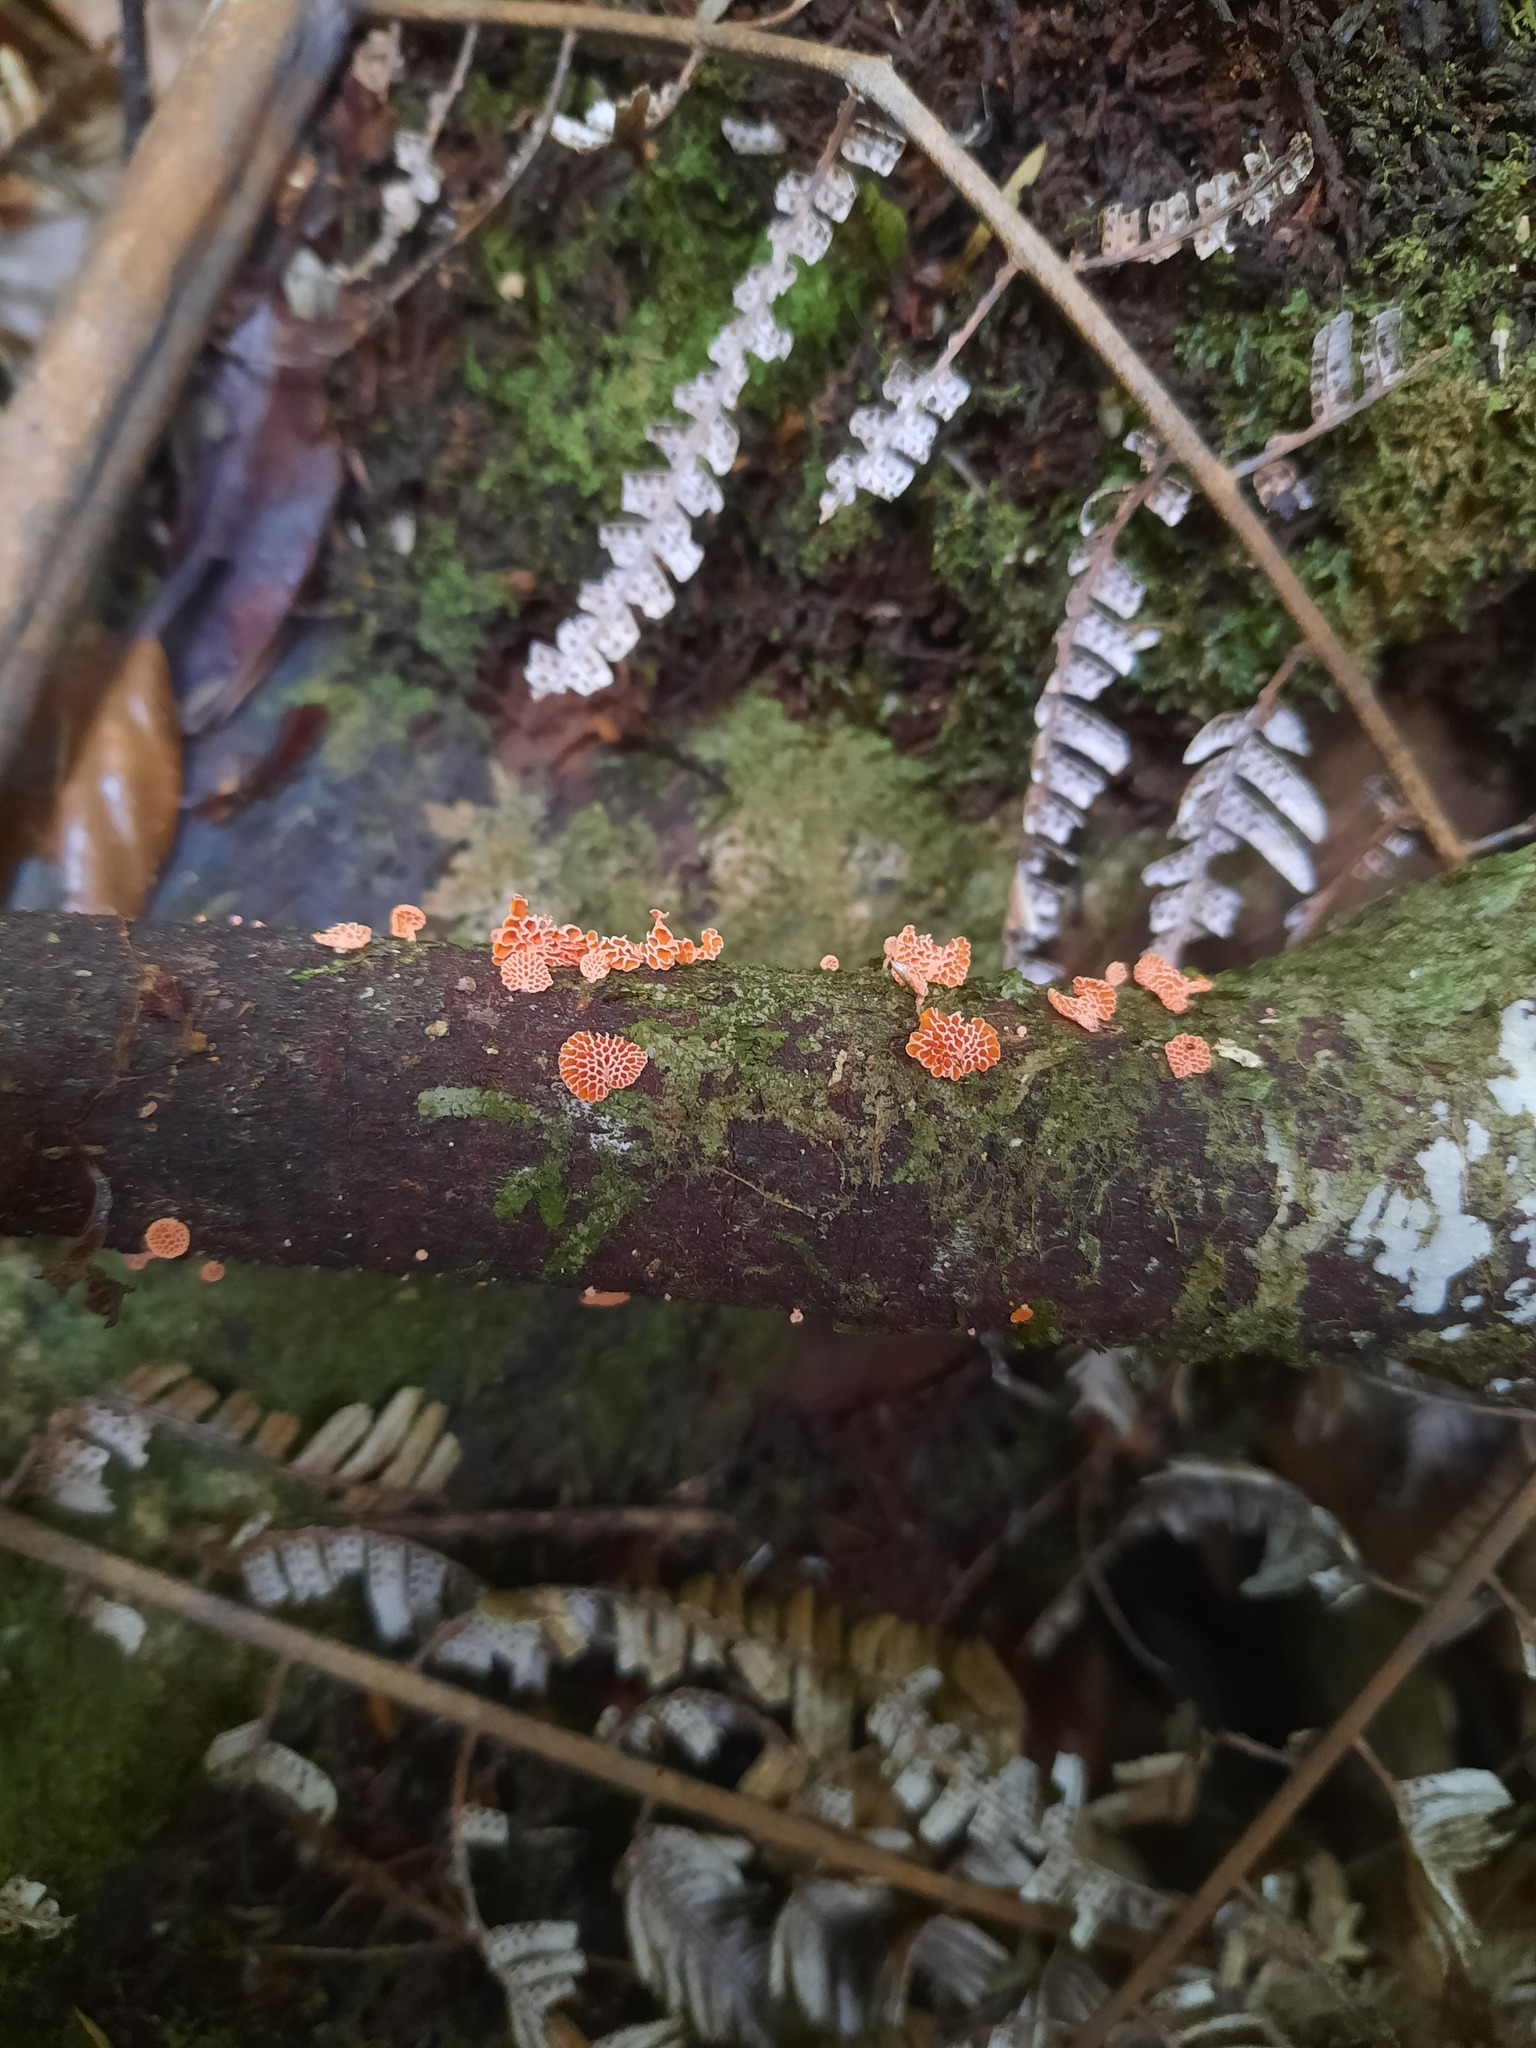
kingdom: Fungi
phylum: Basidiomycota
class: Agaricomycetes
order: Agaricales
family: Mycenaceae
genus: Favolaschia
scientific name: Favolaschia claudopus
